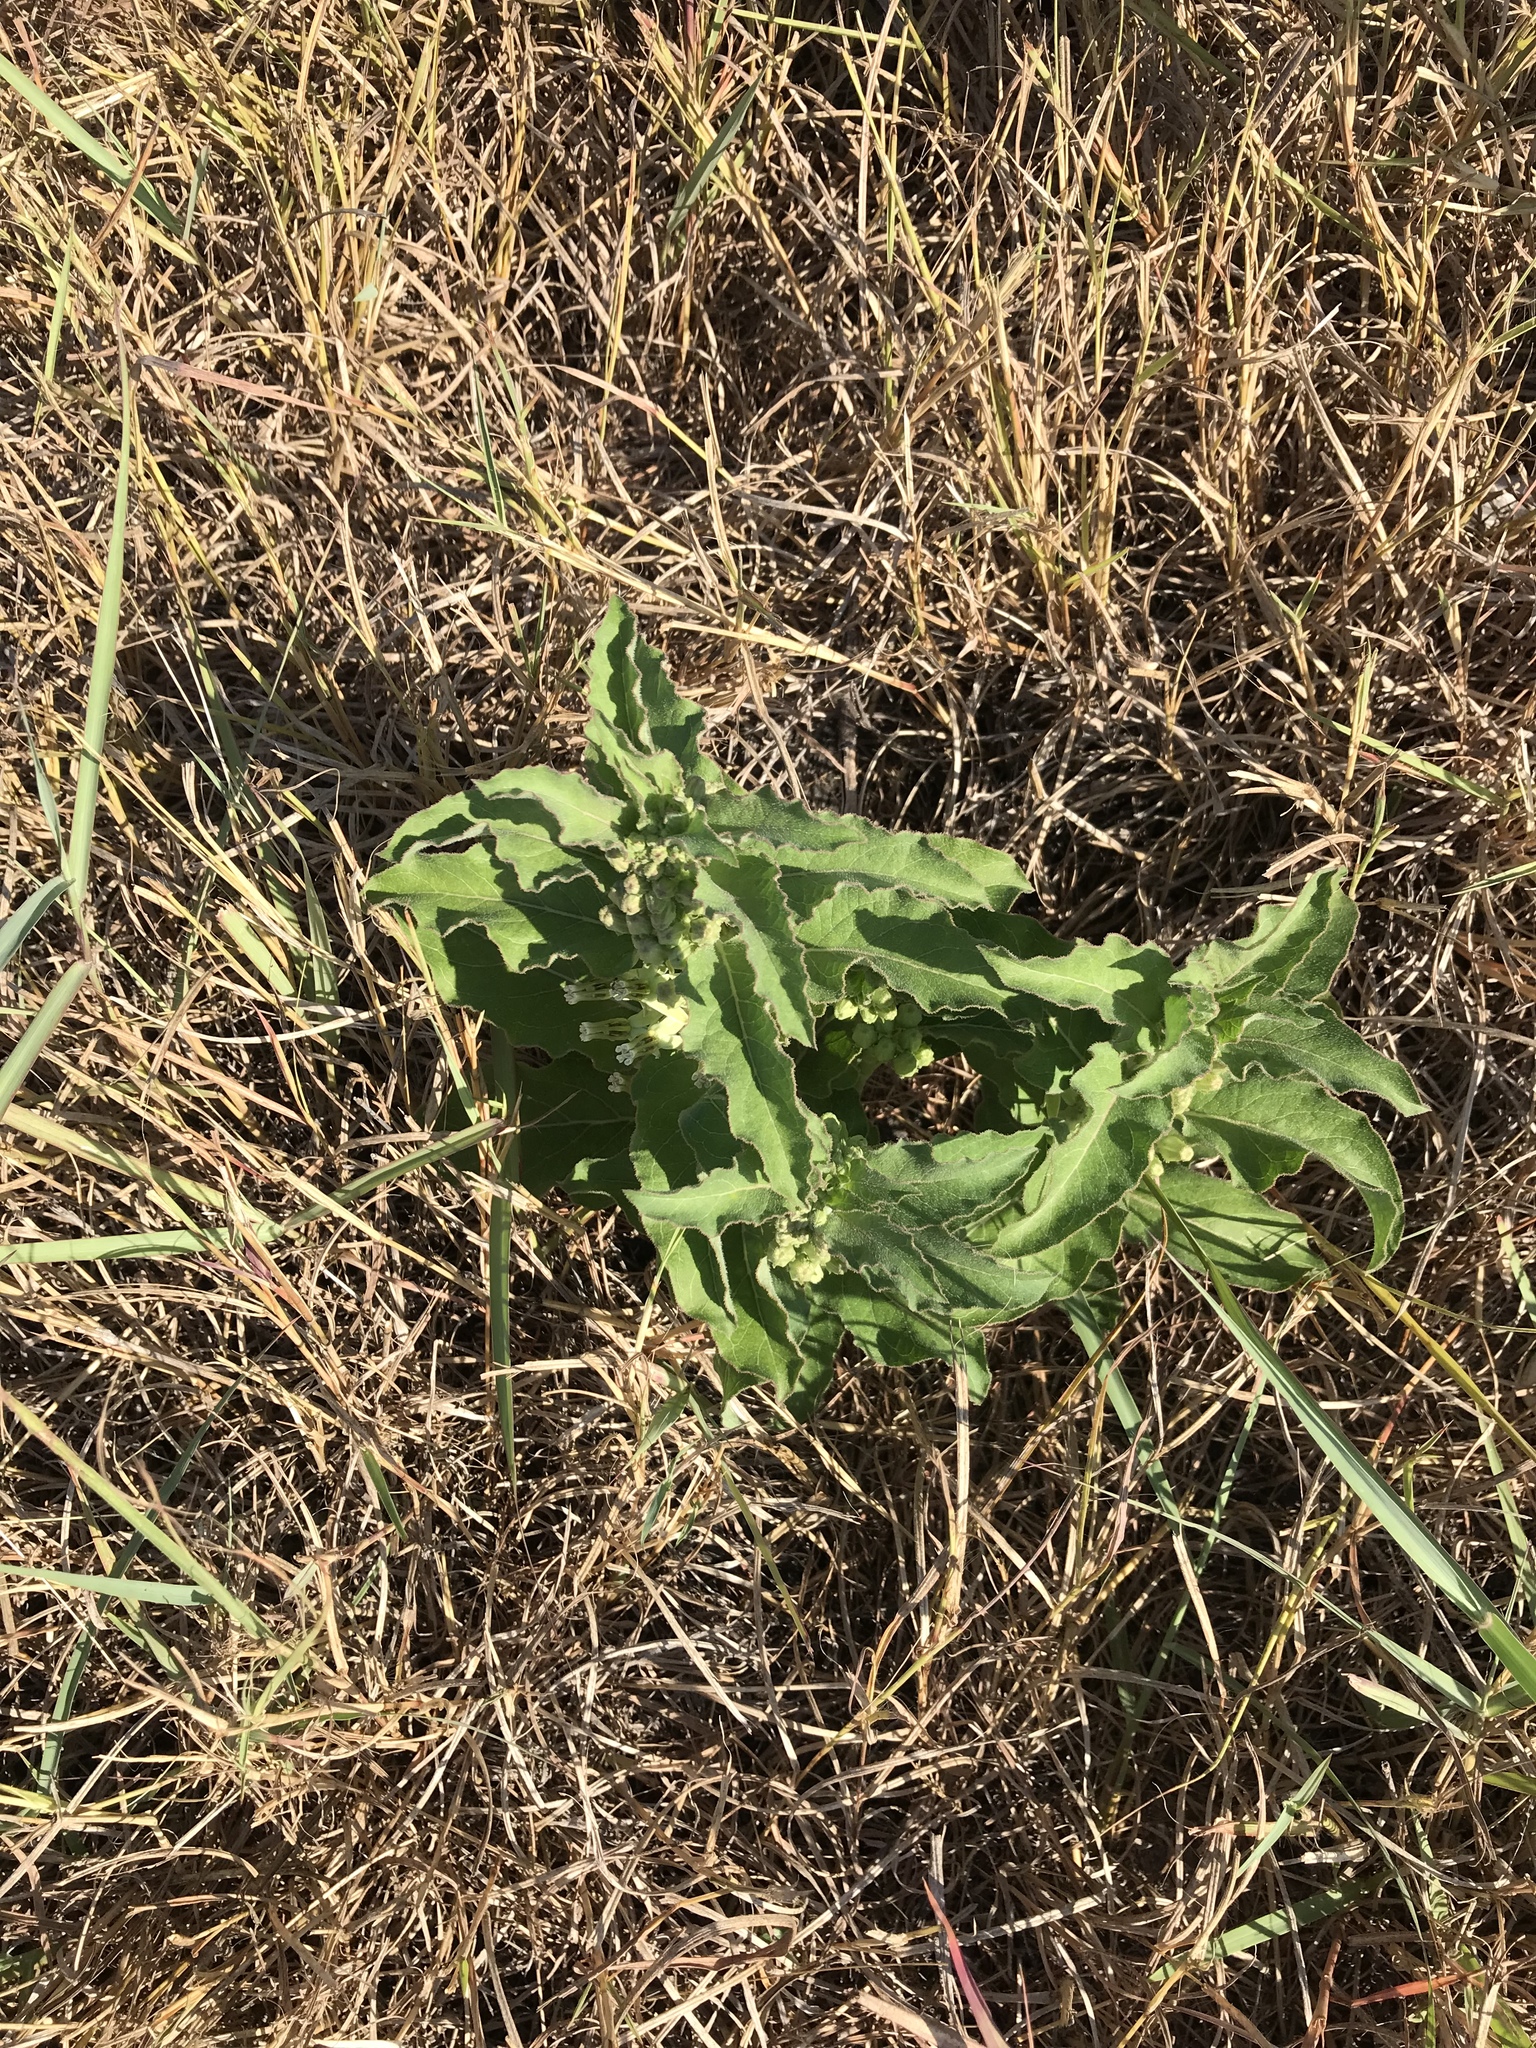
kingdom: Plantae
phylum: Tracheophyta
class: Magnoliopsida
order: Gentianales
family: Apocynaceae
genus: Asclepias
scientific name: Asclepias oenotheroides
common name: Zizotes milkweed
